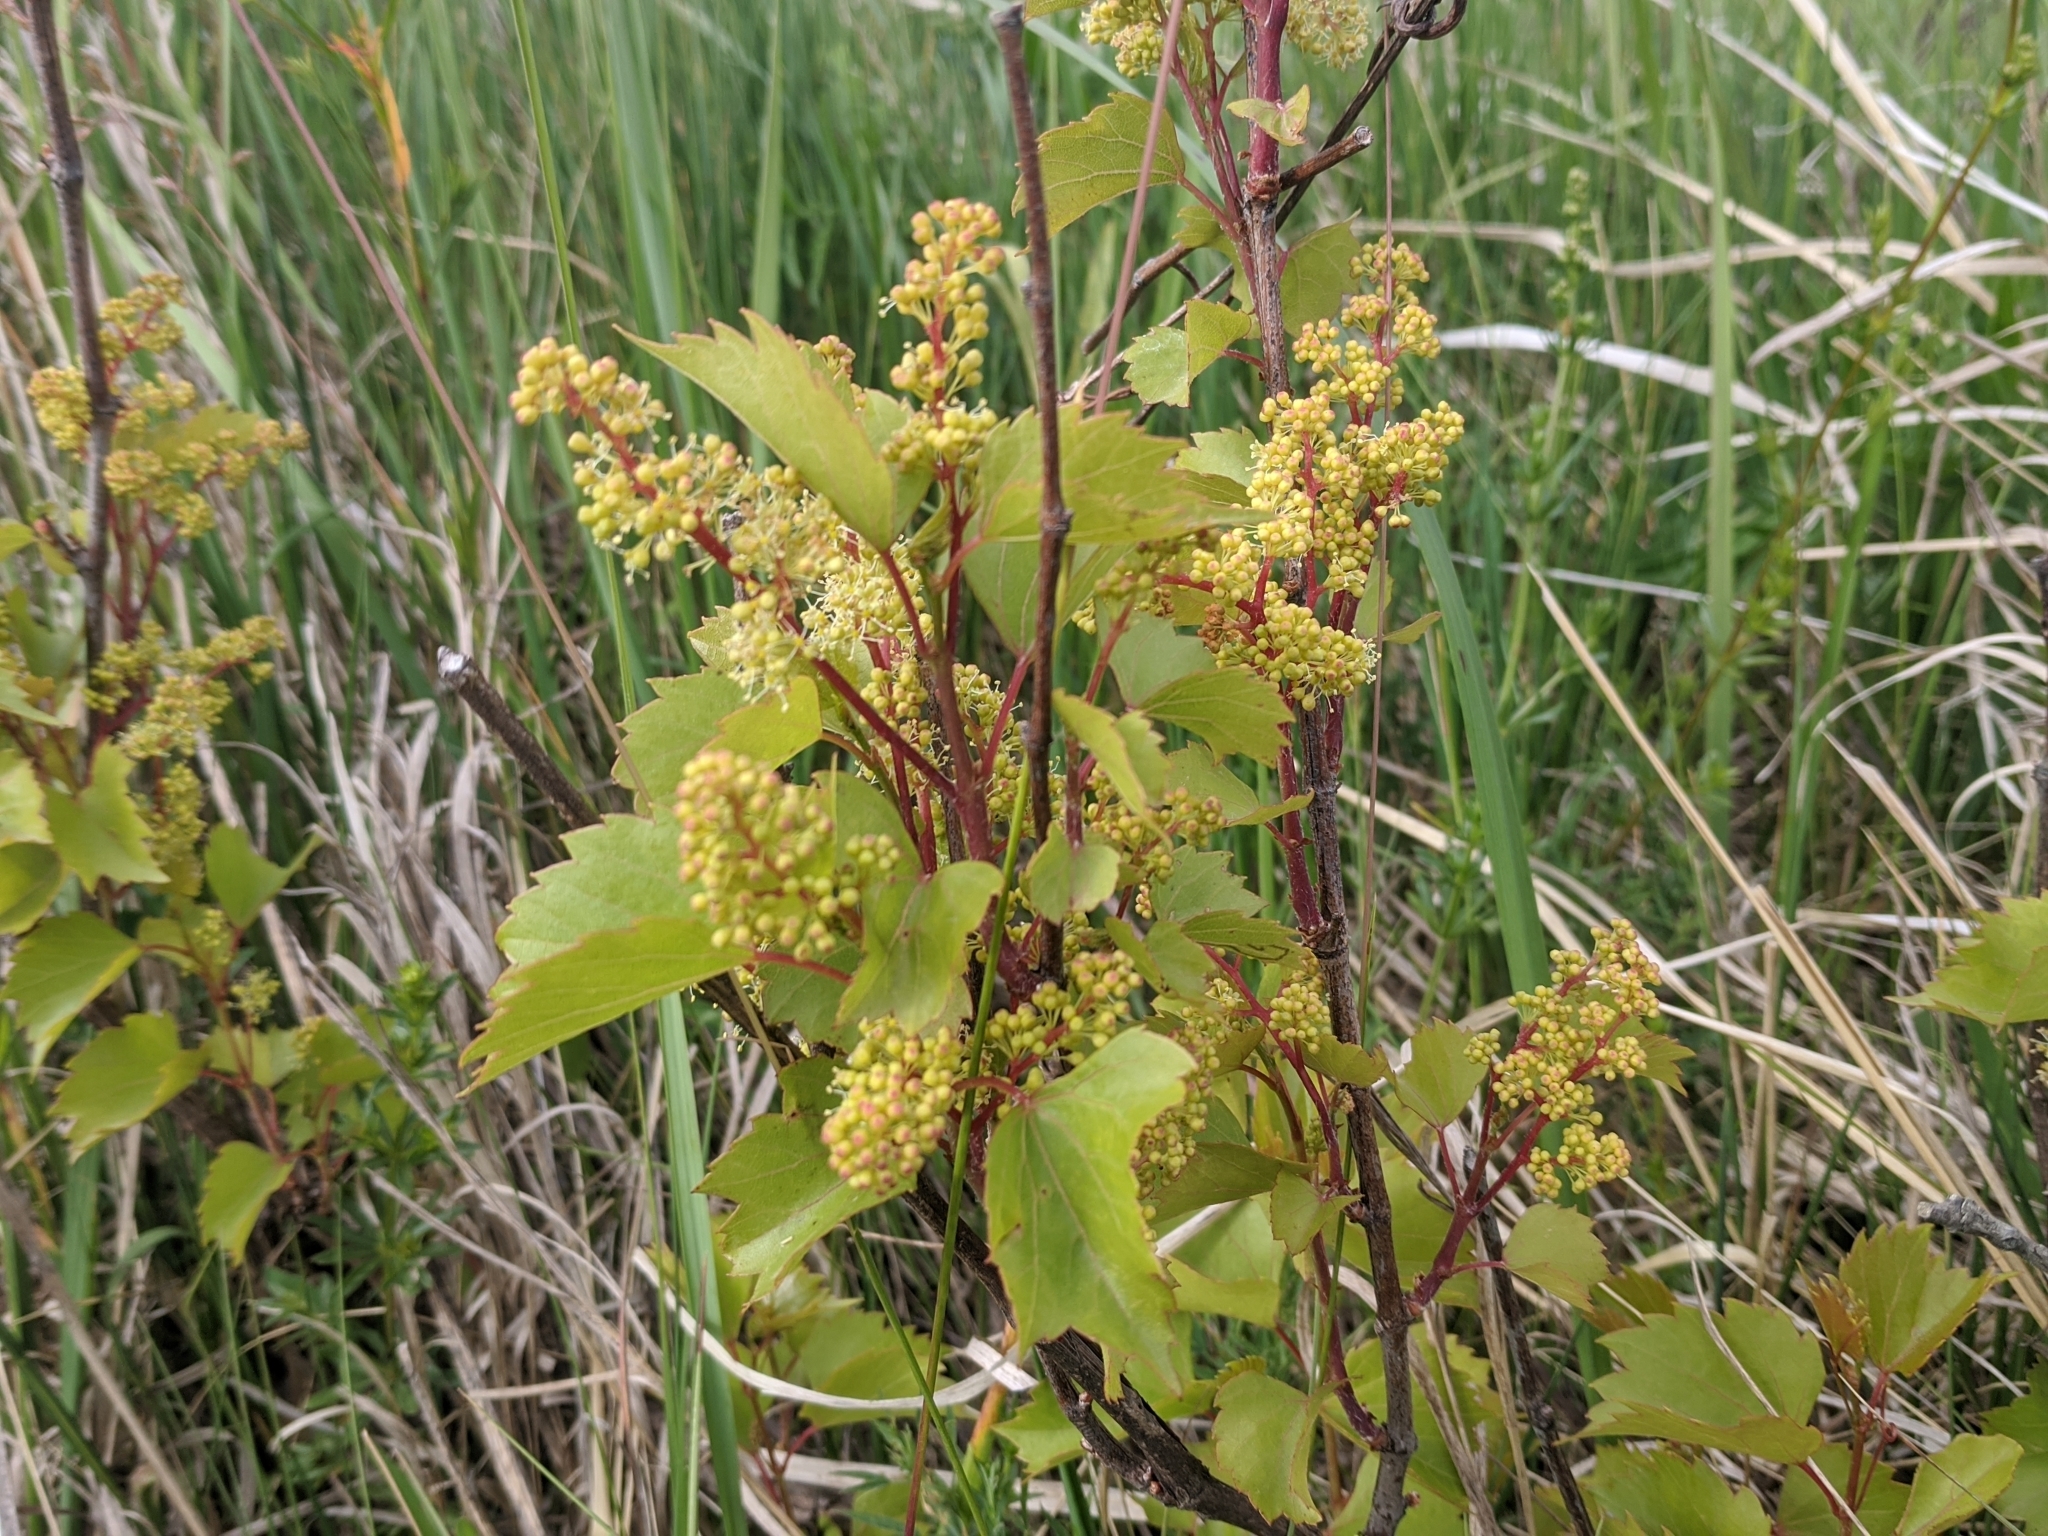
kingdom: Plantae
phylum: Tracheophyta
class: Magnoliopsida
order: Vitales
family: Vitaceae
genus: Vitis
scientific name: Vitis vinifera
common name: Grape-vine
